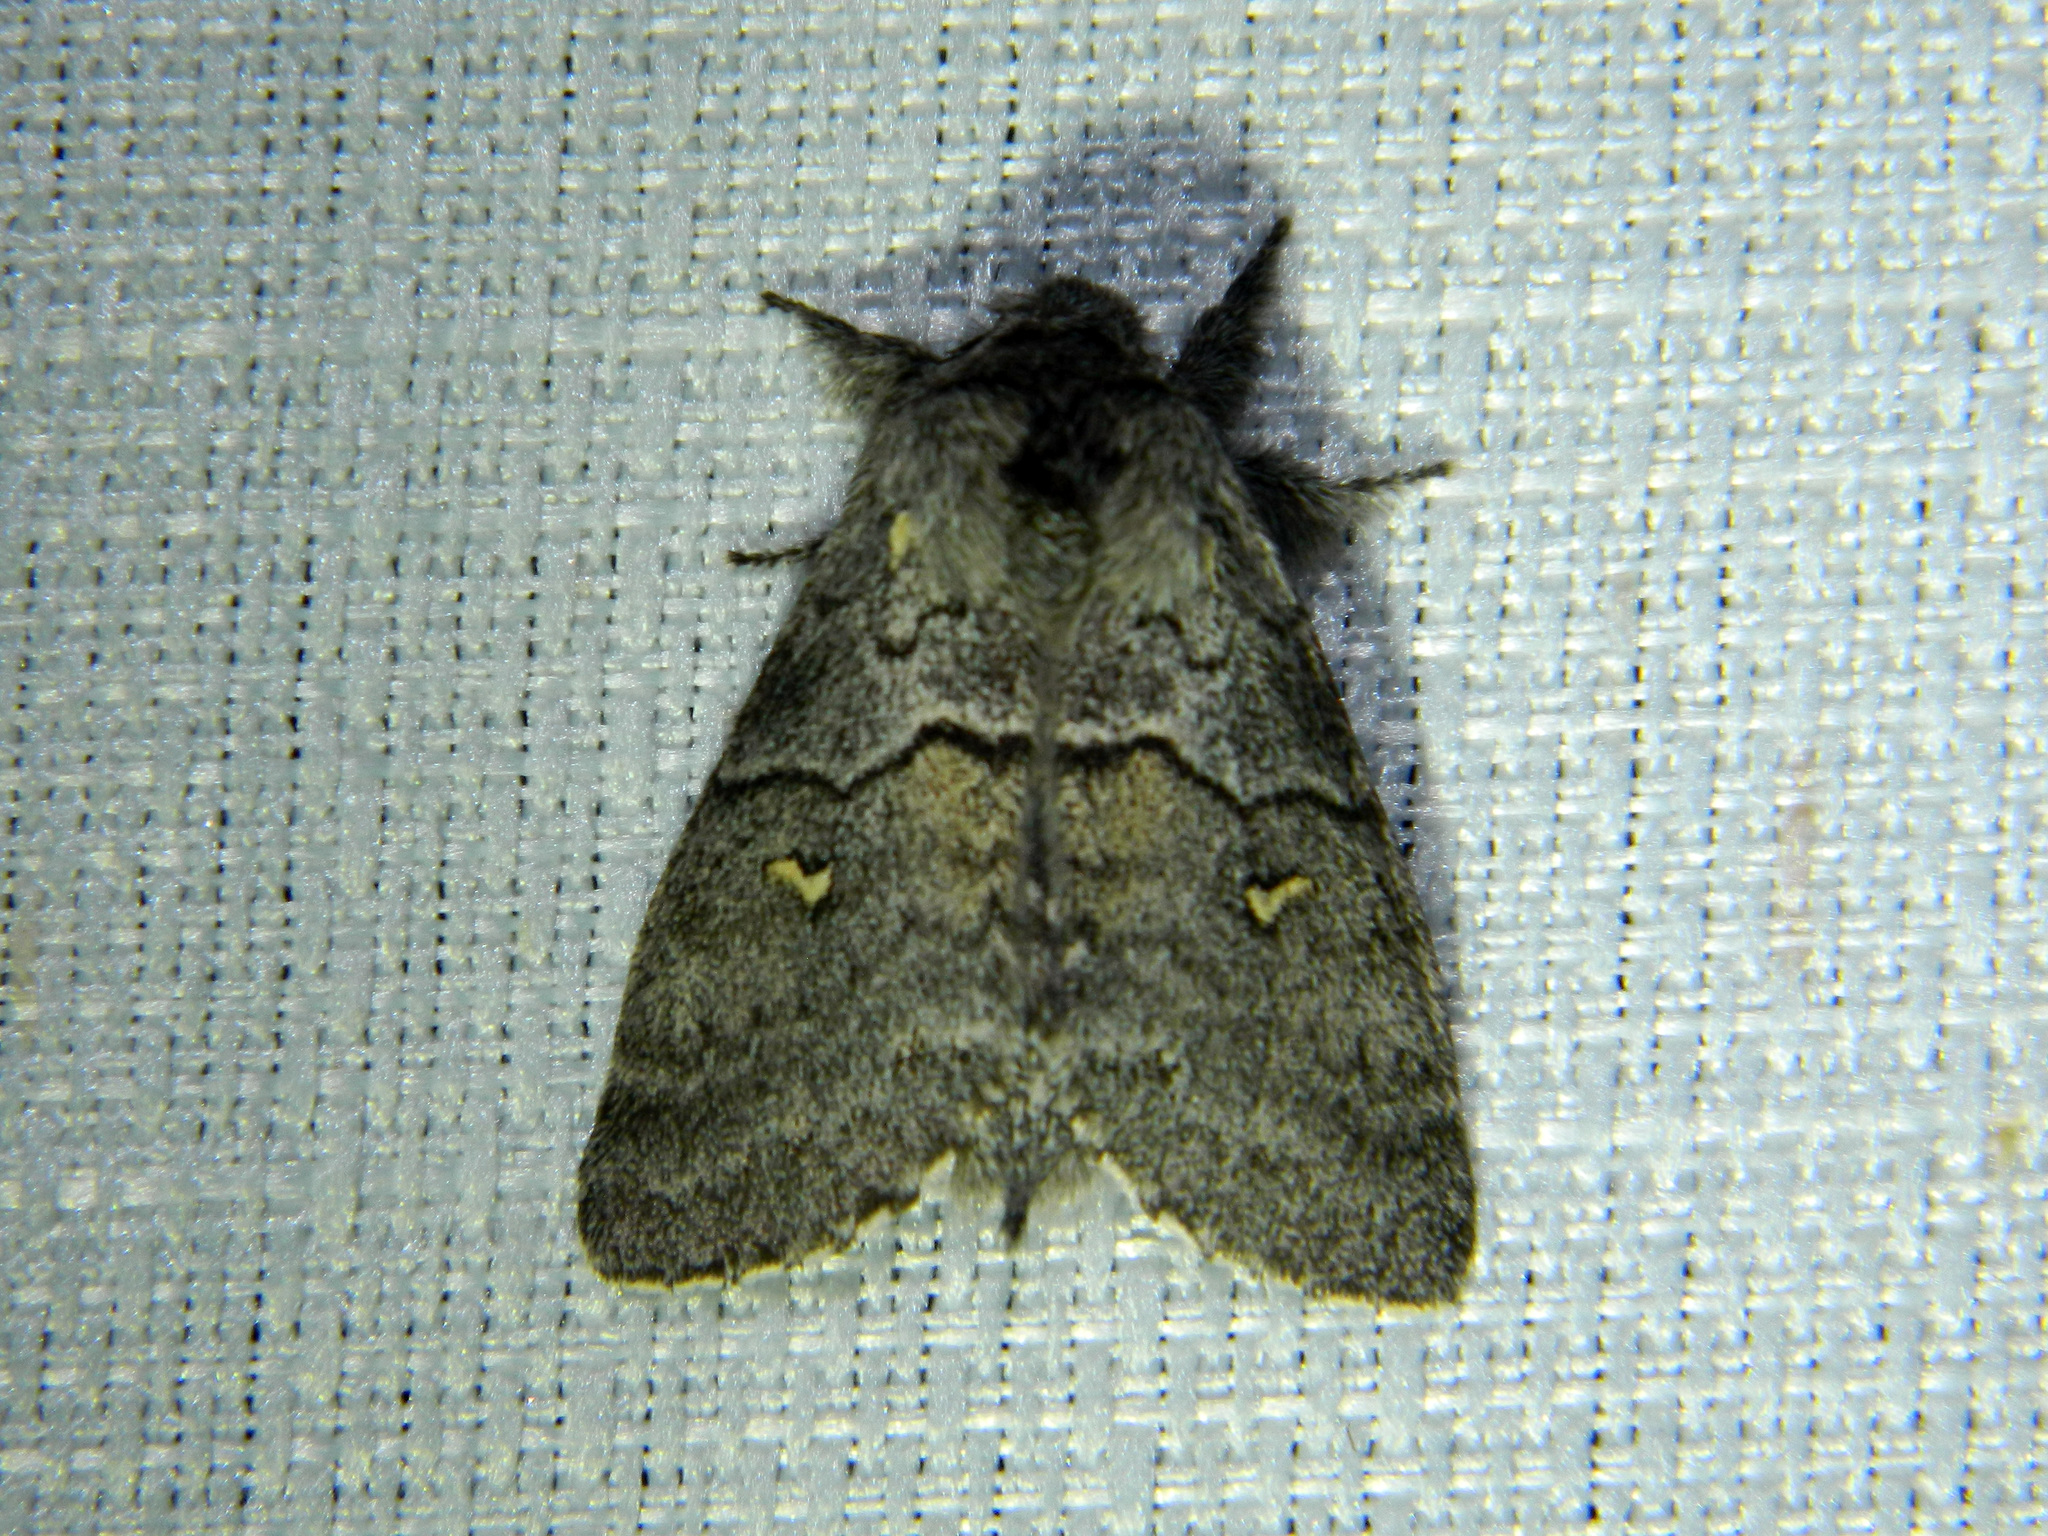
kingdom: Animalia
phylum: Arthropoda
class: Insecta
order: Lepidoptera
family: Notodontidae
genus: Gluphisia
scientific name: Gluphisia avimacula
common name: Four-spotted gluphisia moth
